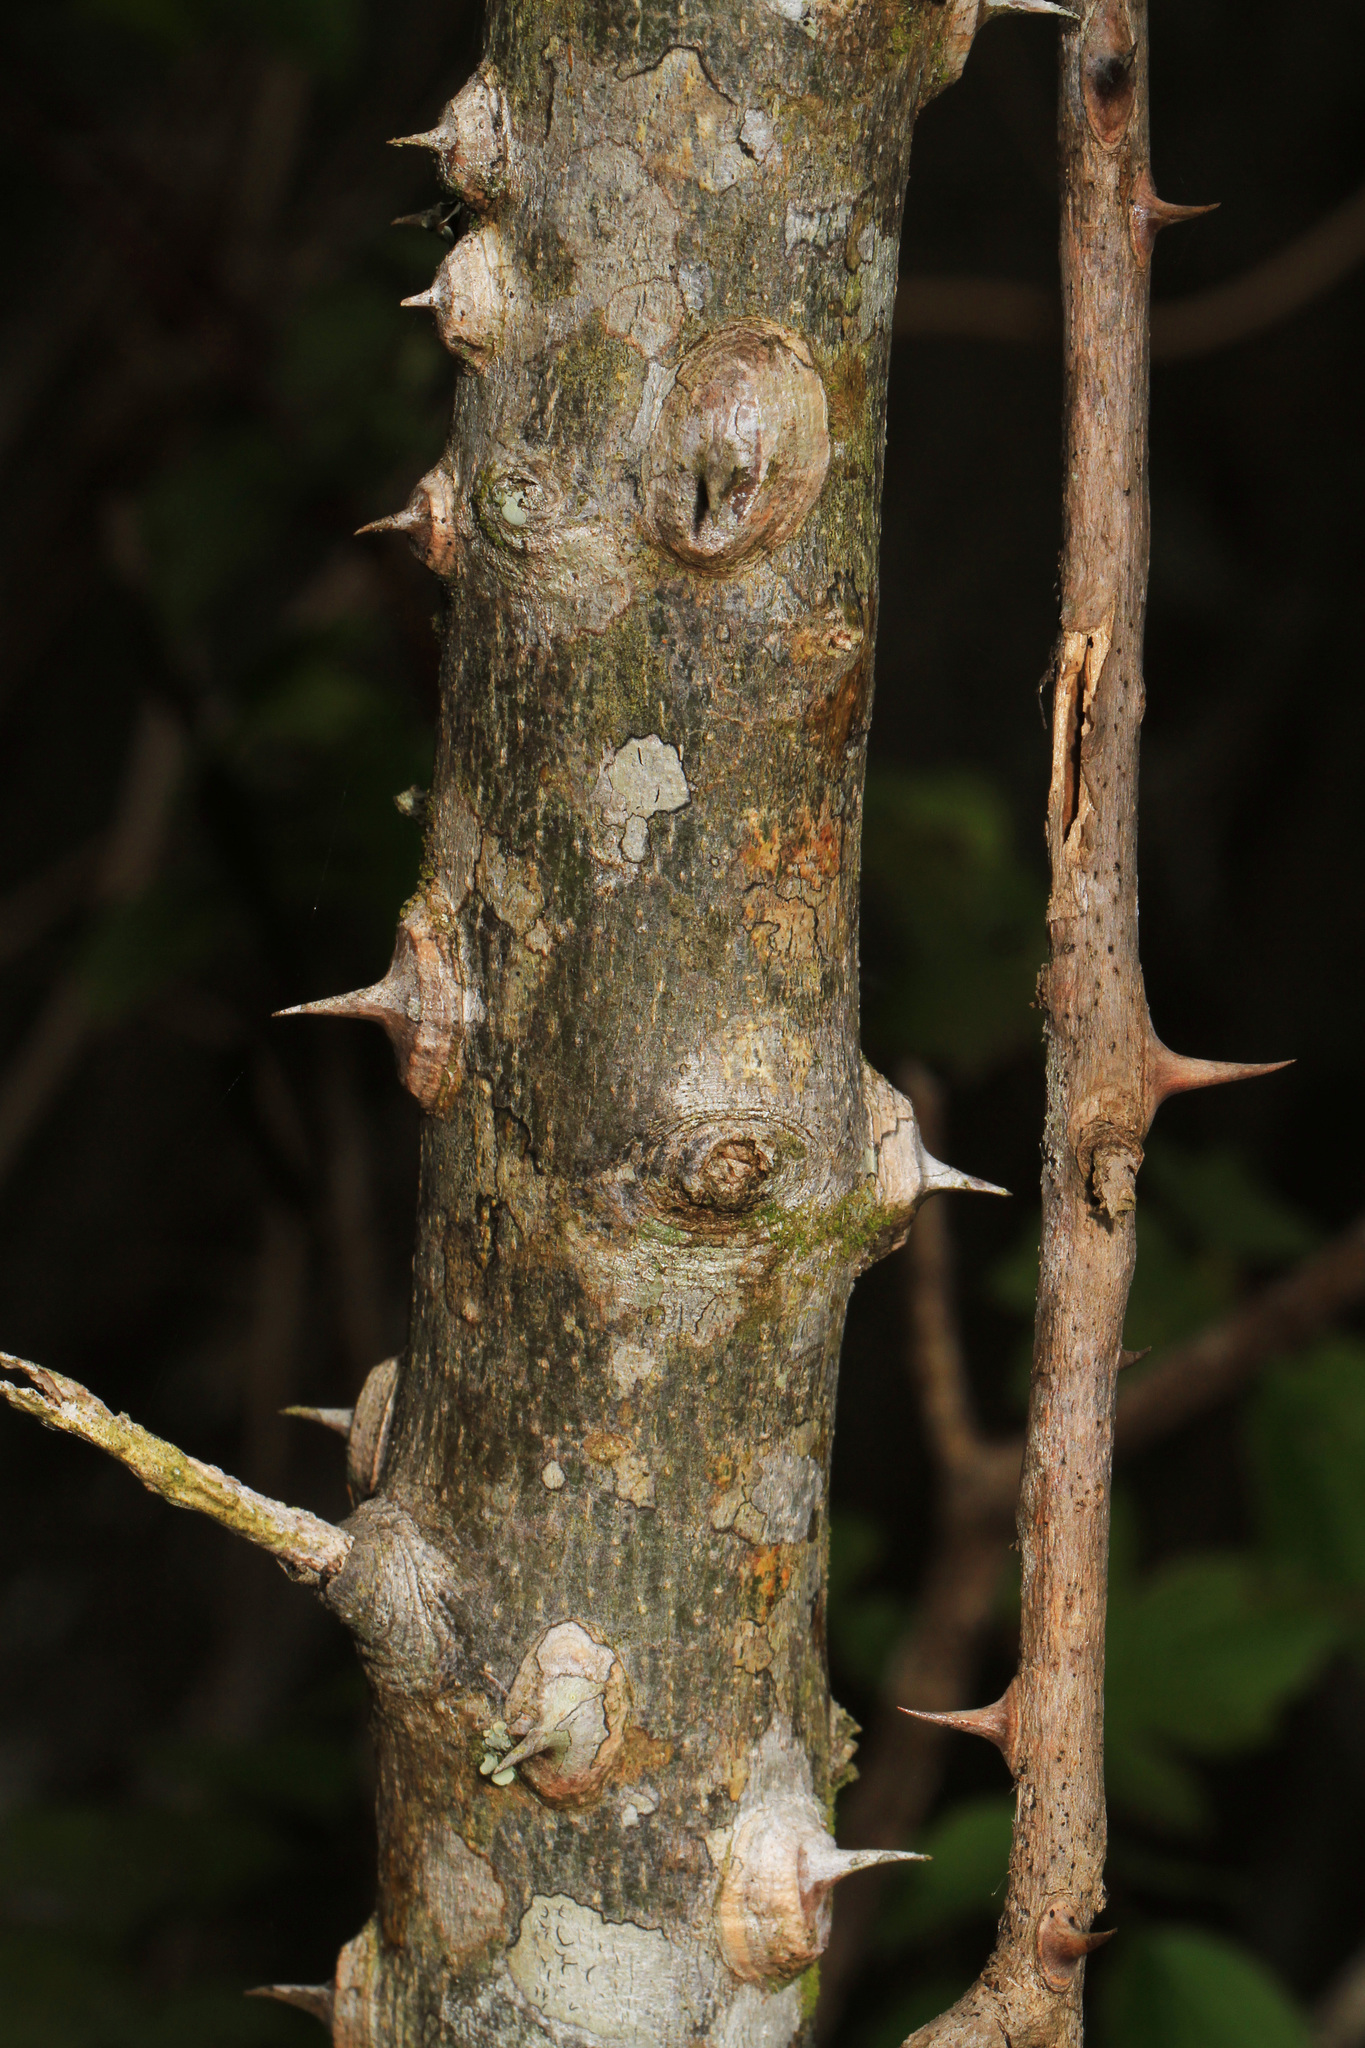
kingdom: Plantae
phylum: Tracheophyta
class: Magnoliopsida
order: Sapindales
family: Rutaceae
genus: Zanthoxylum
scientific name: Zanthoxylum clava-herculis
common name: Hercules'-club
